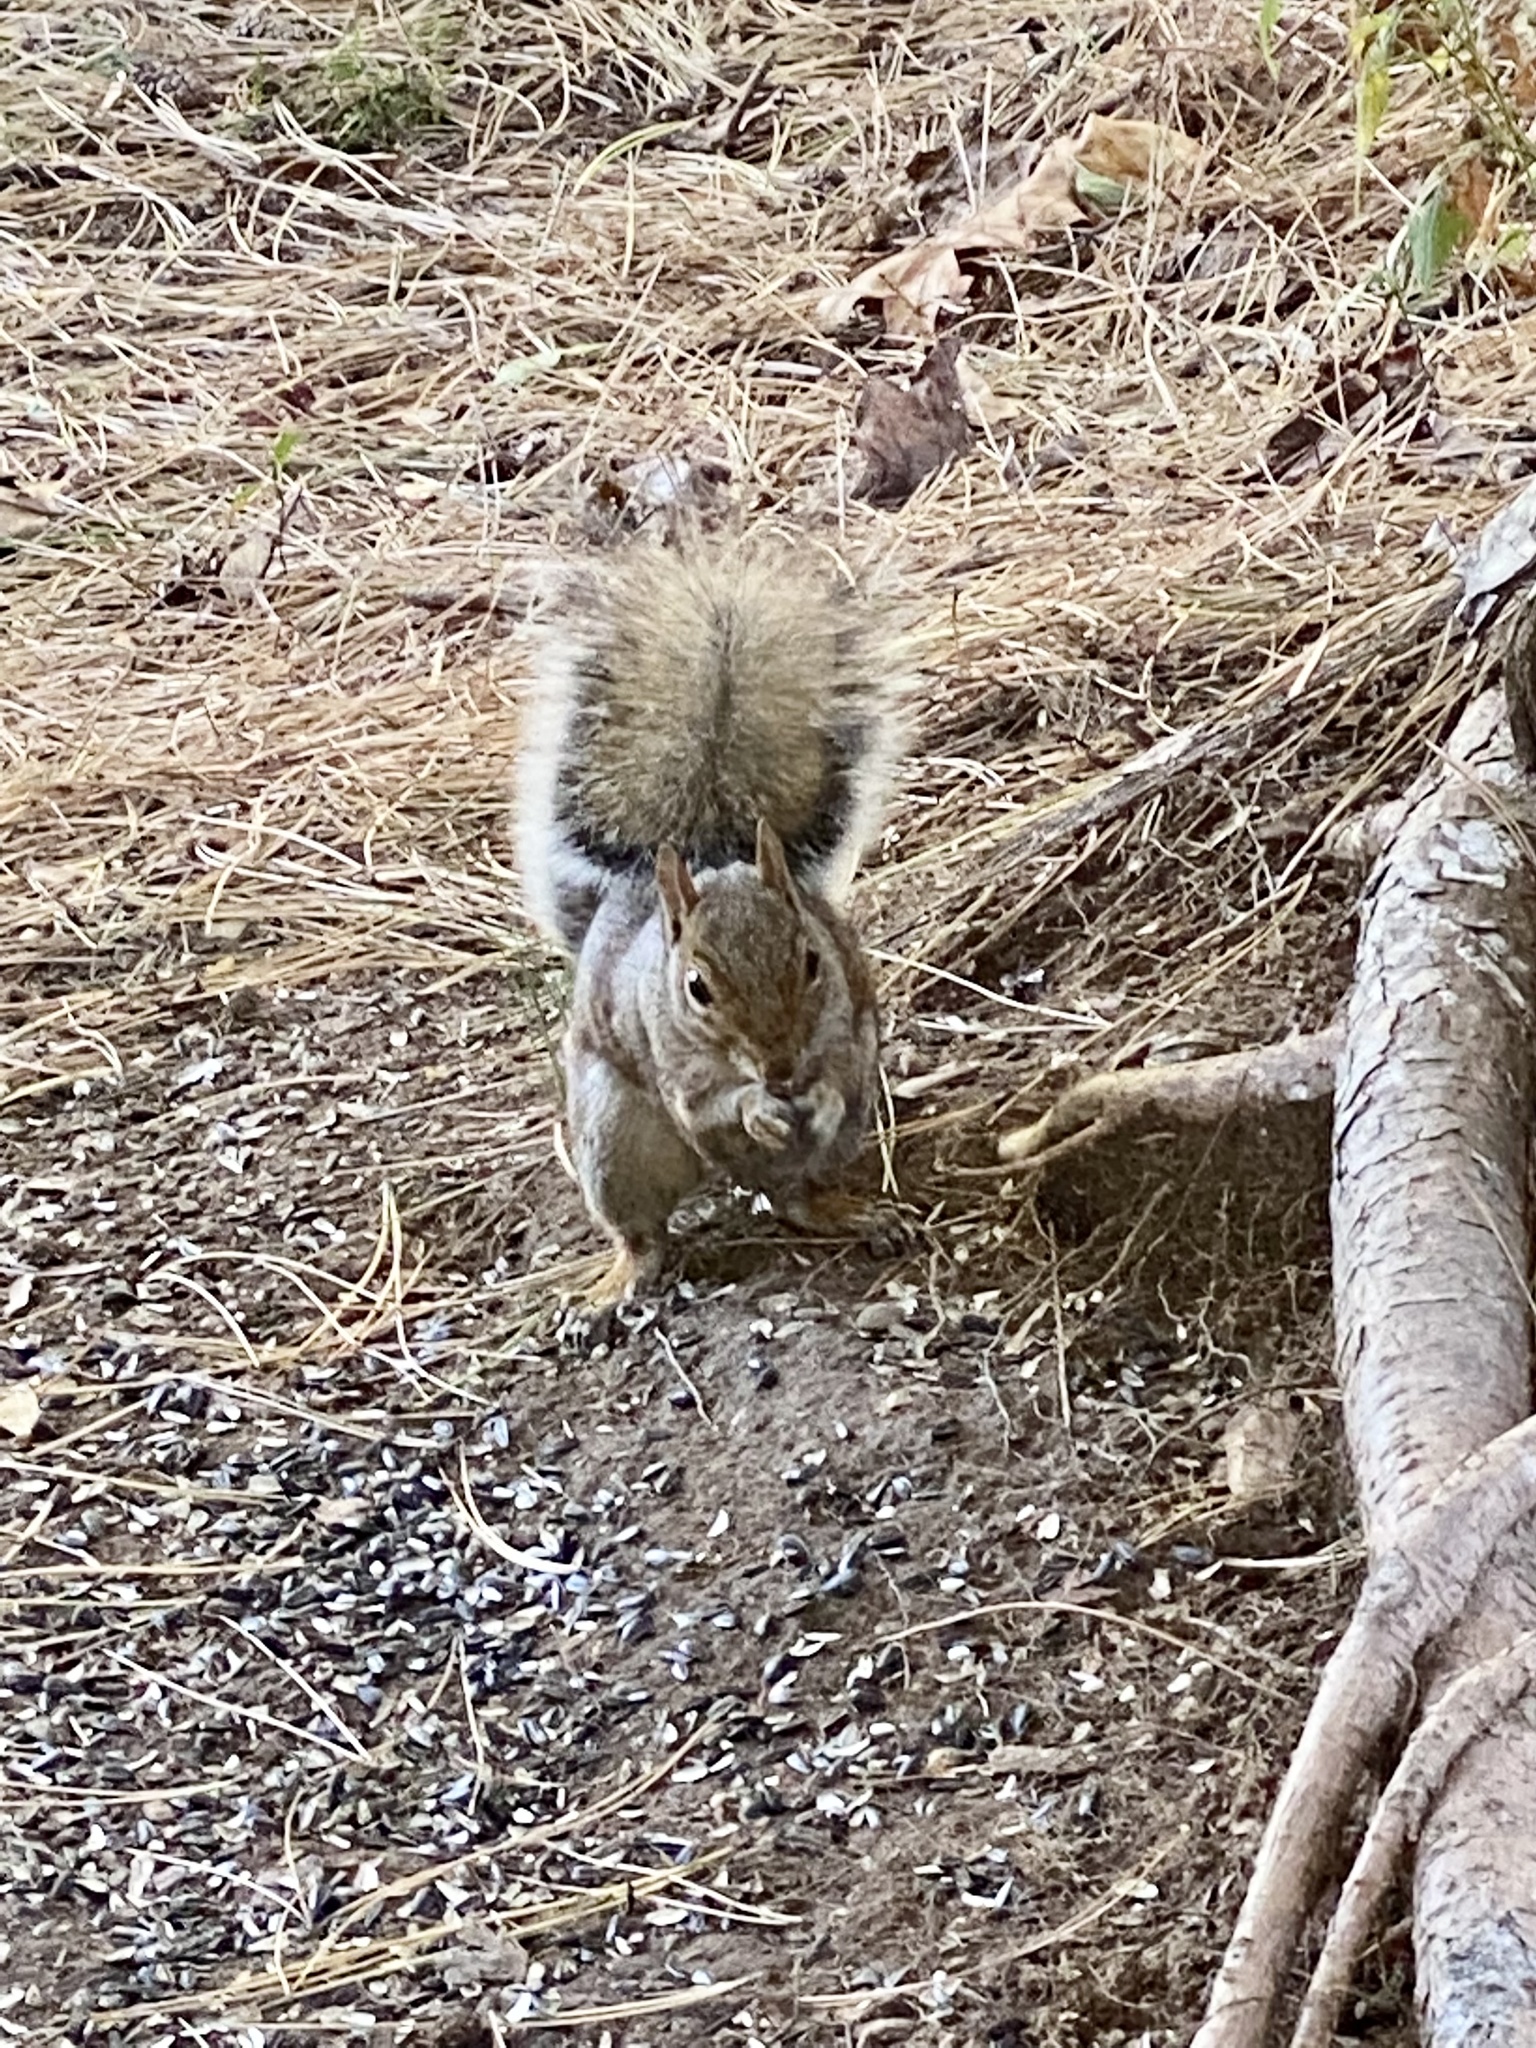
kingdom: Animalia
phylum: Chordata
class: Mammalia
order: Rodentia
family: Sciuridae
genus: Sciurus
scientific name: Sciurus carolinensis
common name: Eastern gray squirrel
